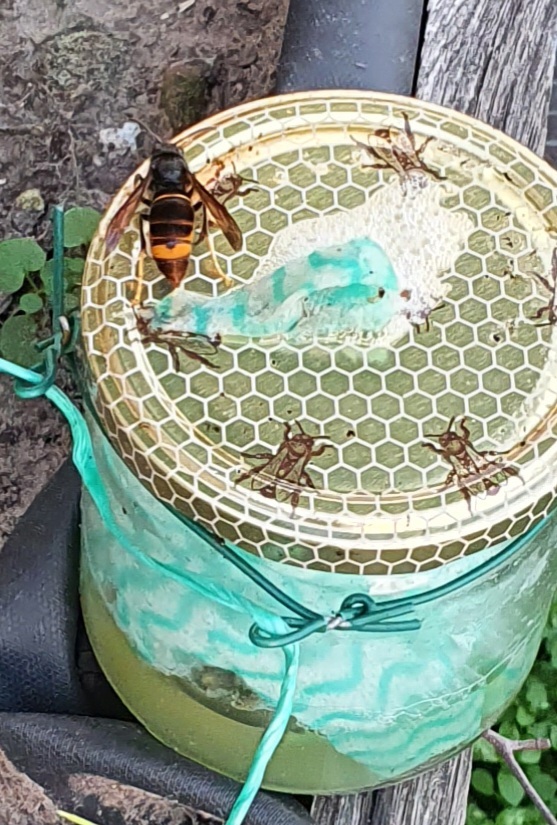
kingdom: Animalia
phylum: Arthropoda
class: Insecta
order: Hymenoptera
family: Vespidae
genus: Vespa
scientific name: Vespa velutina
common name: Asian hornet
